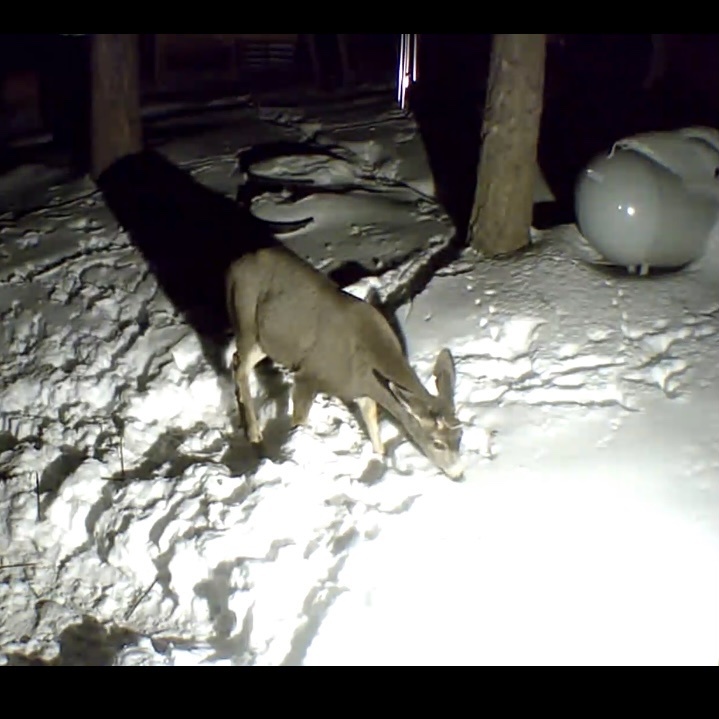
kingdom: Animalia
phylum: Chordata
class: Mammalia
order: Artiodactyla
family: Cervidae
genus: Odocoileus
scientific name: Odocoileus hemionus
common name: Mule deer
